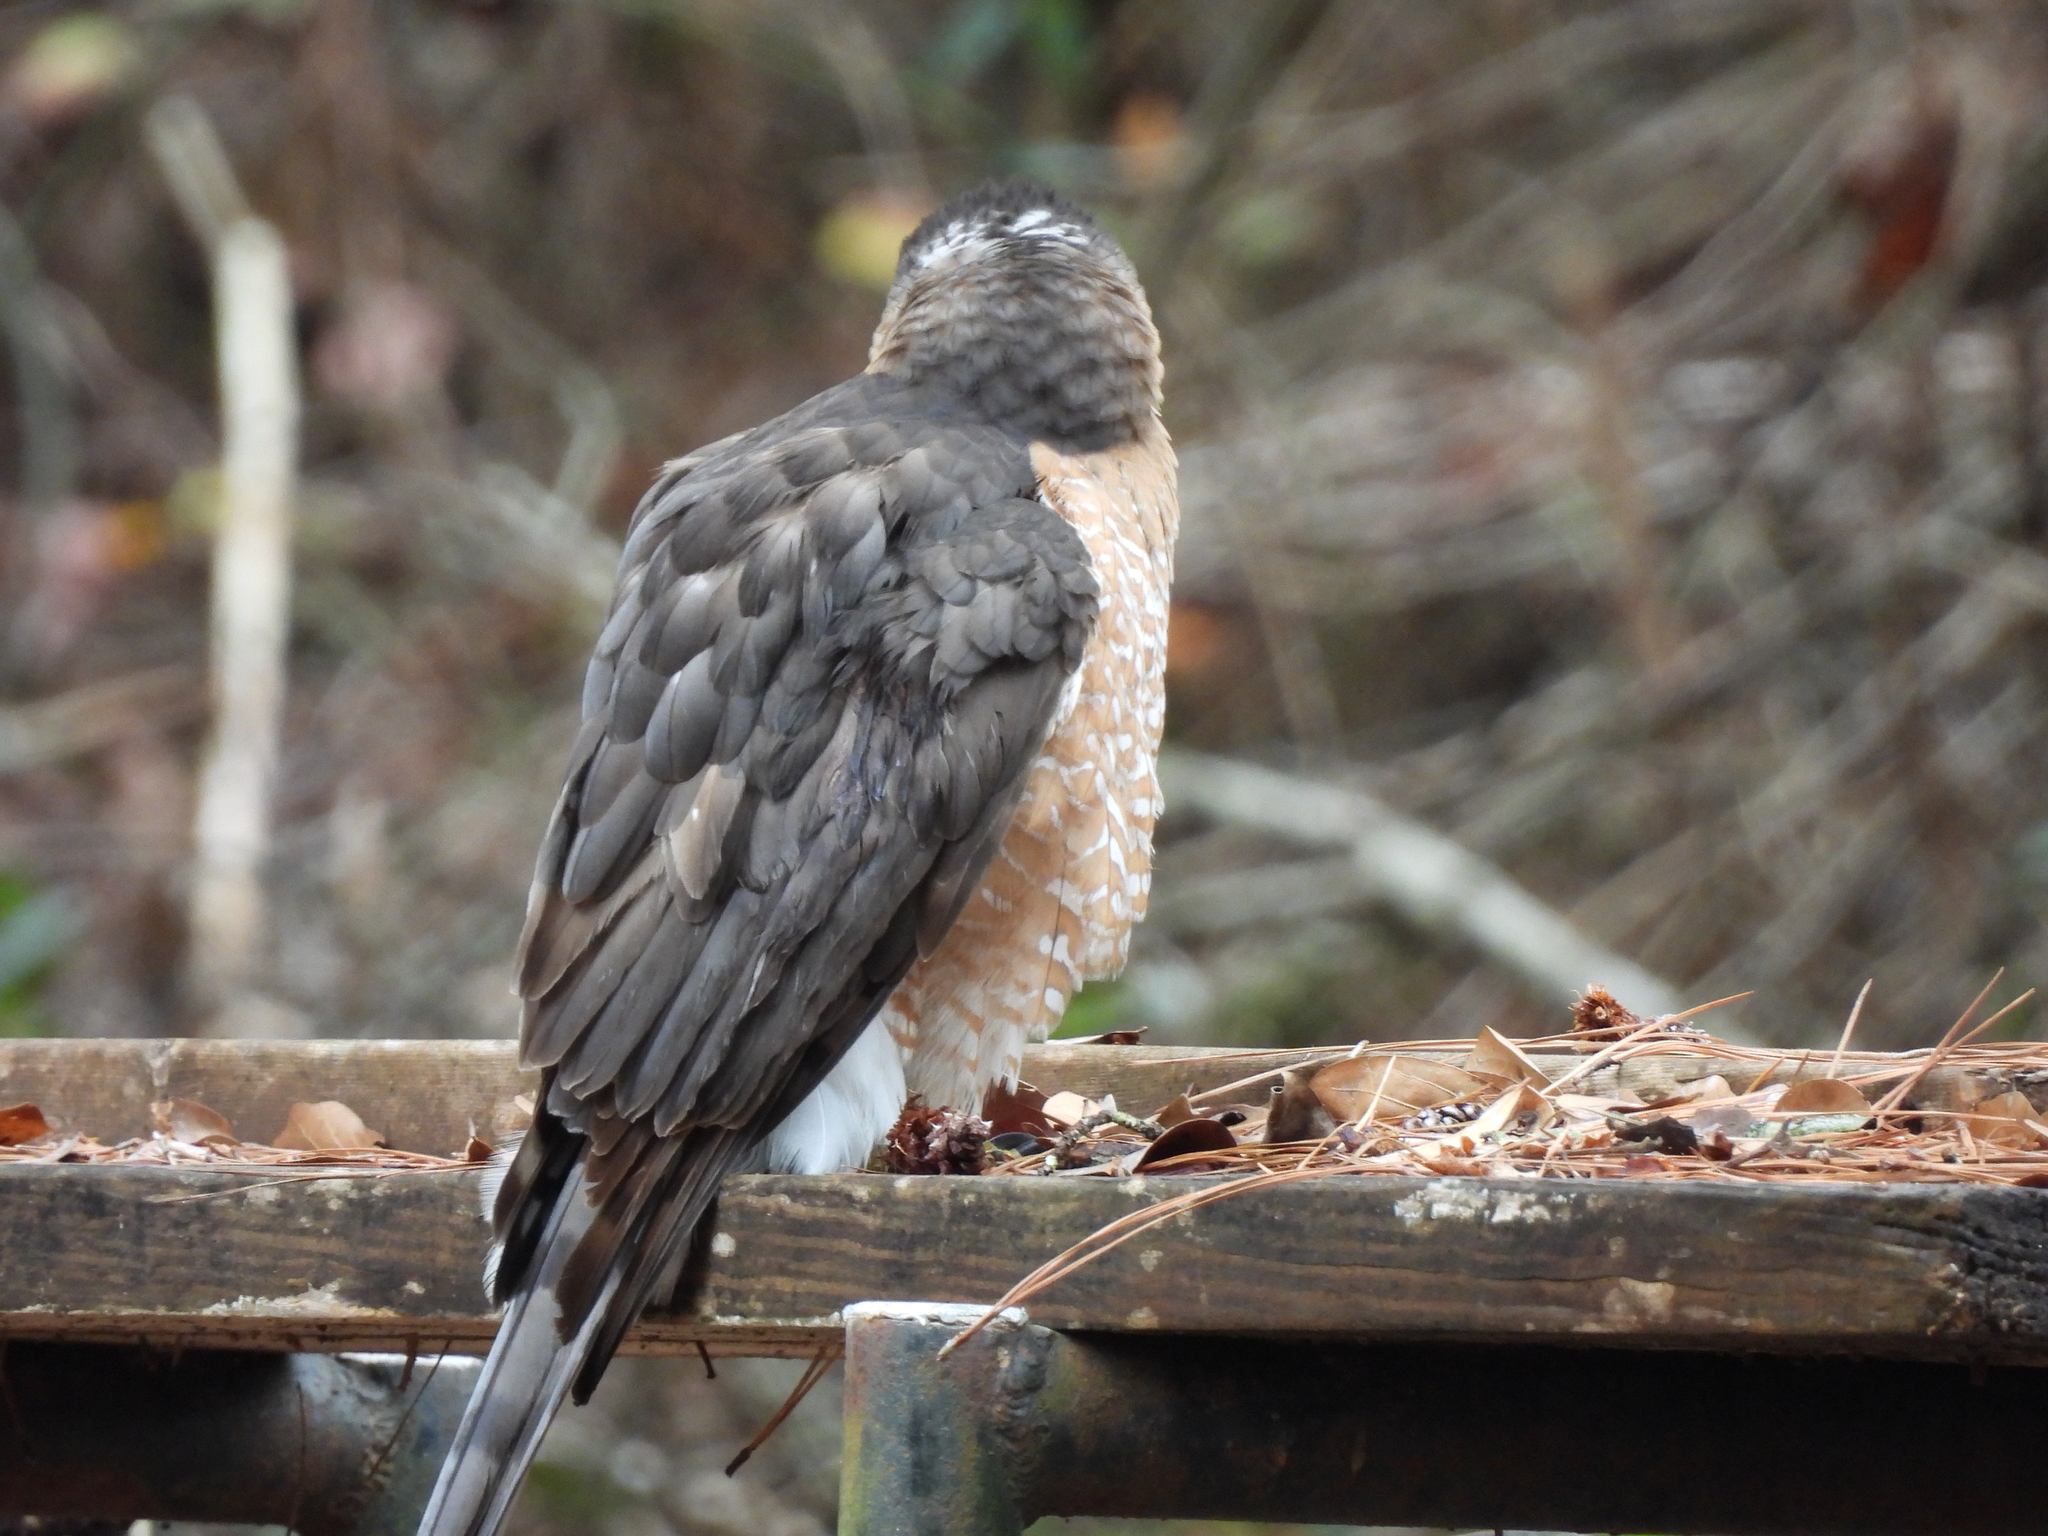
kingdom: Animalia
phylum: Chordata
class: Aves
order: Accipitriformes
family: Accipitridae
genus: Accipiter
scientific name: Accipiter cooperii
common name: Cooper's hawk
